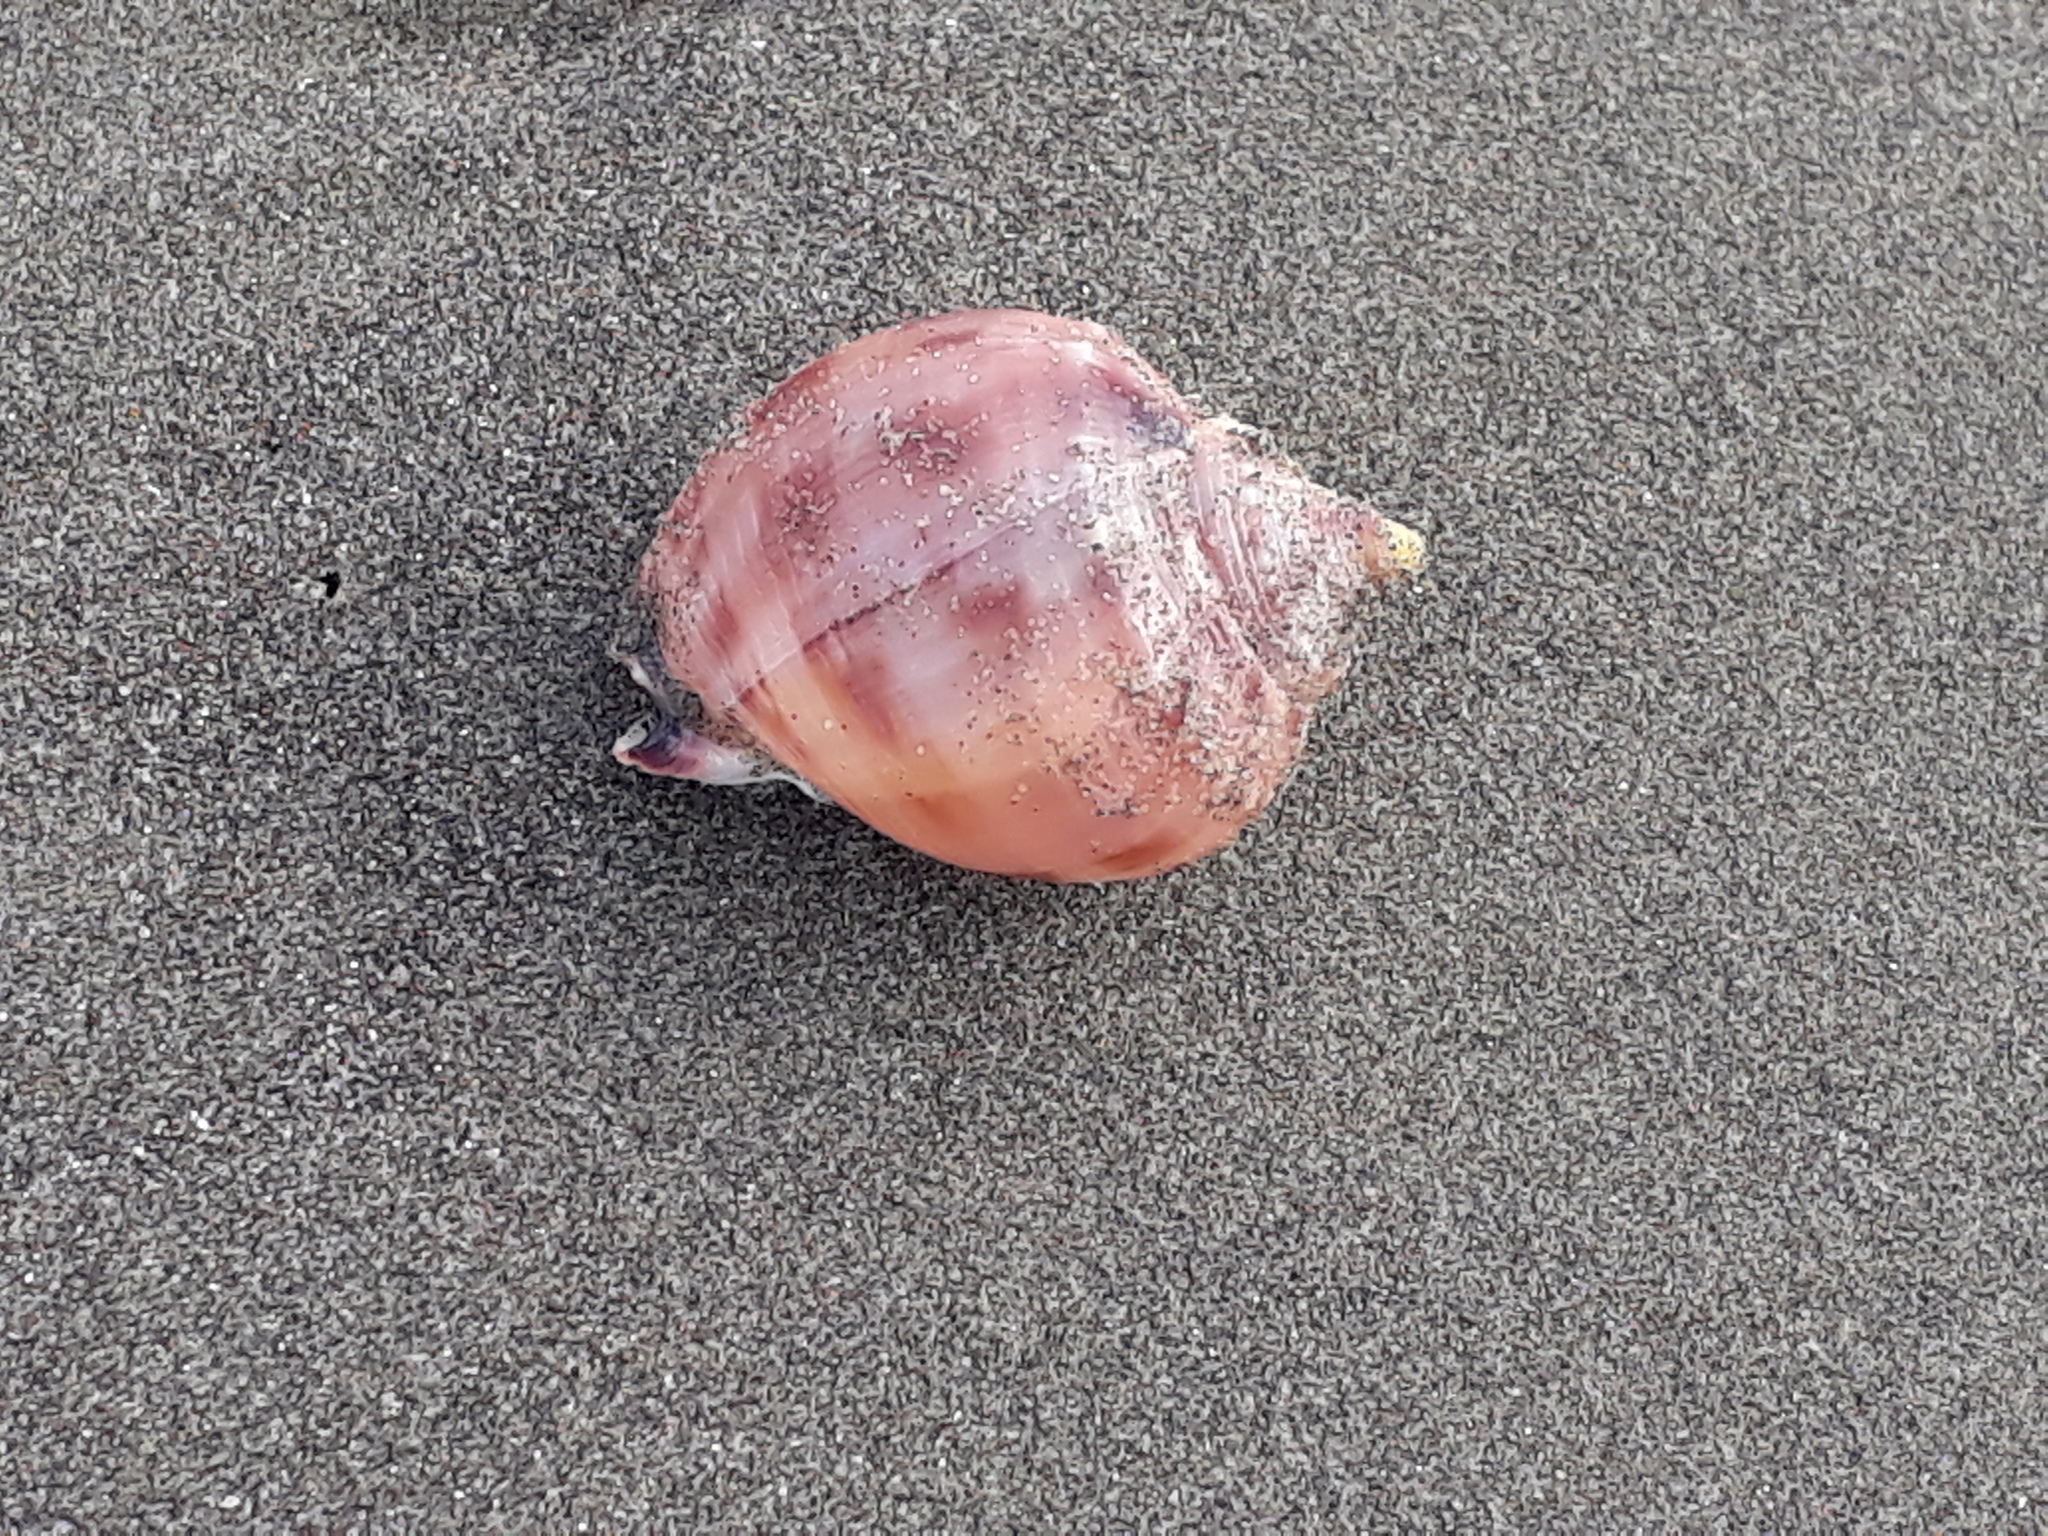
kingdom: Animalia
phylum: Mollusca
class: Gastropoda
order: Littorinimorpha
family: Cassidae
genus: Semicassis
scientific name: Semicassis pyrum
